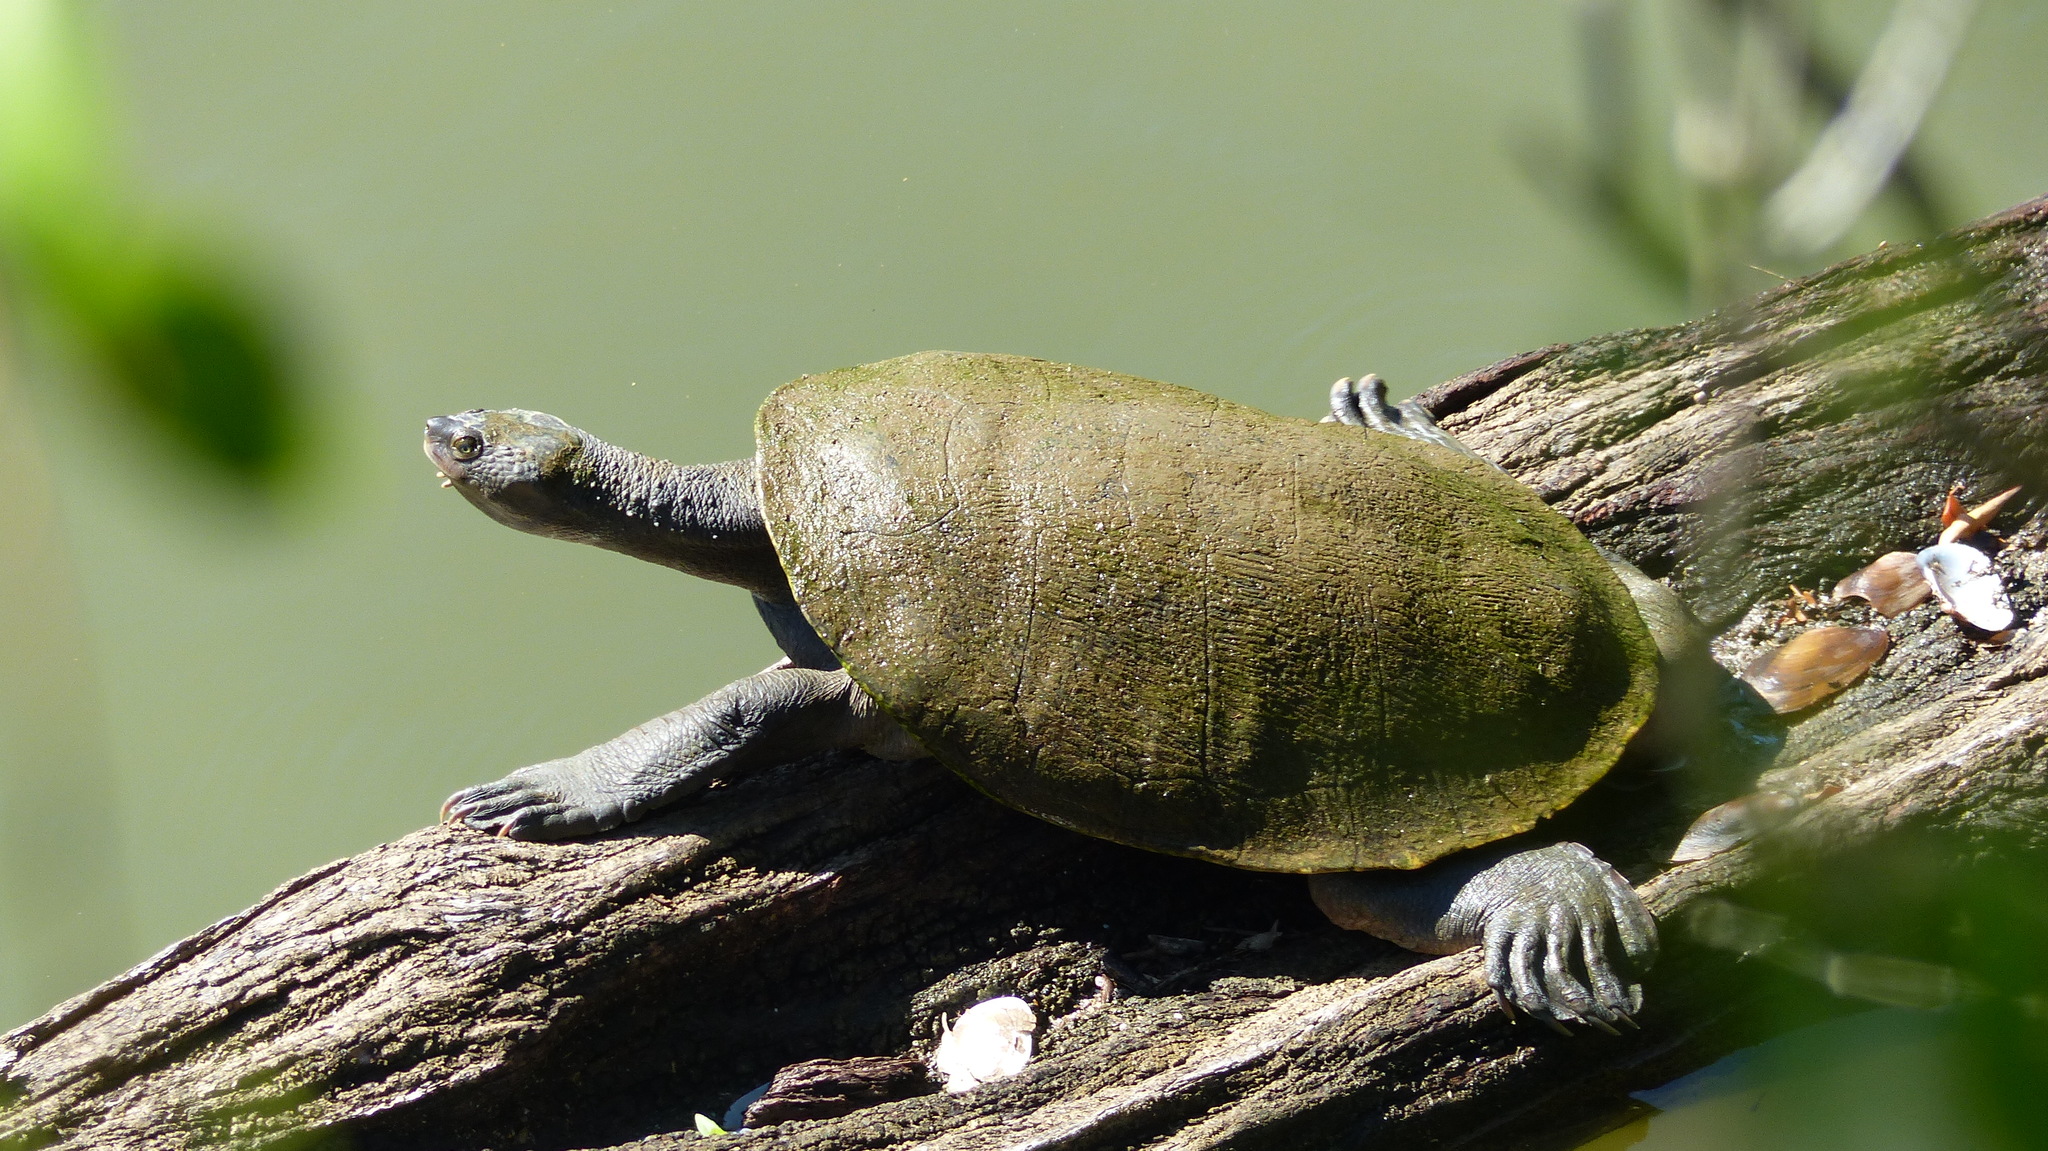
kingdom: Animalia
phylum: Chordata
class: Testudines
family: Chelidae
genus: Elusor
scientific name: Elusor macrurus
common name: Mary river turtle
